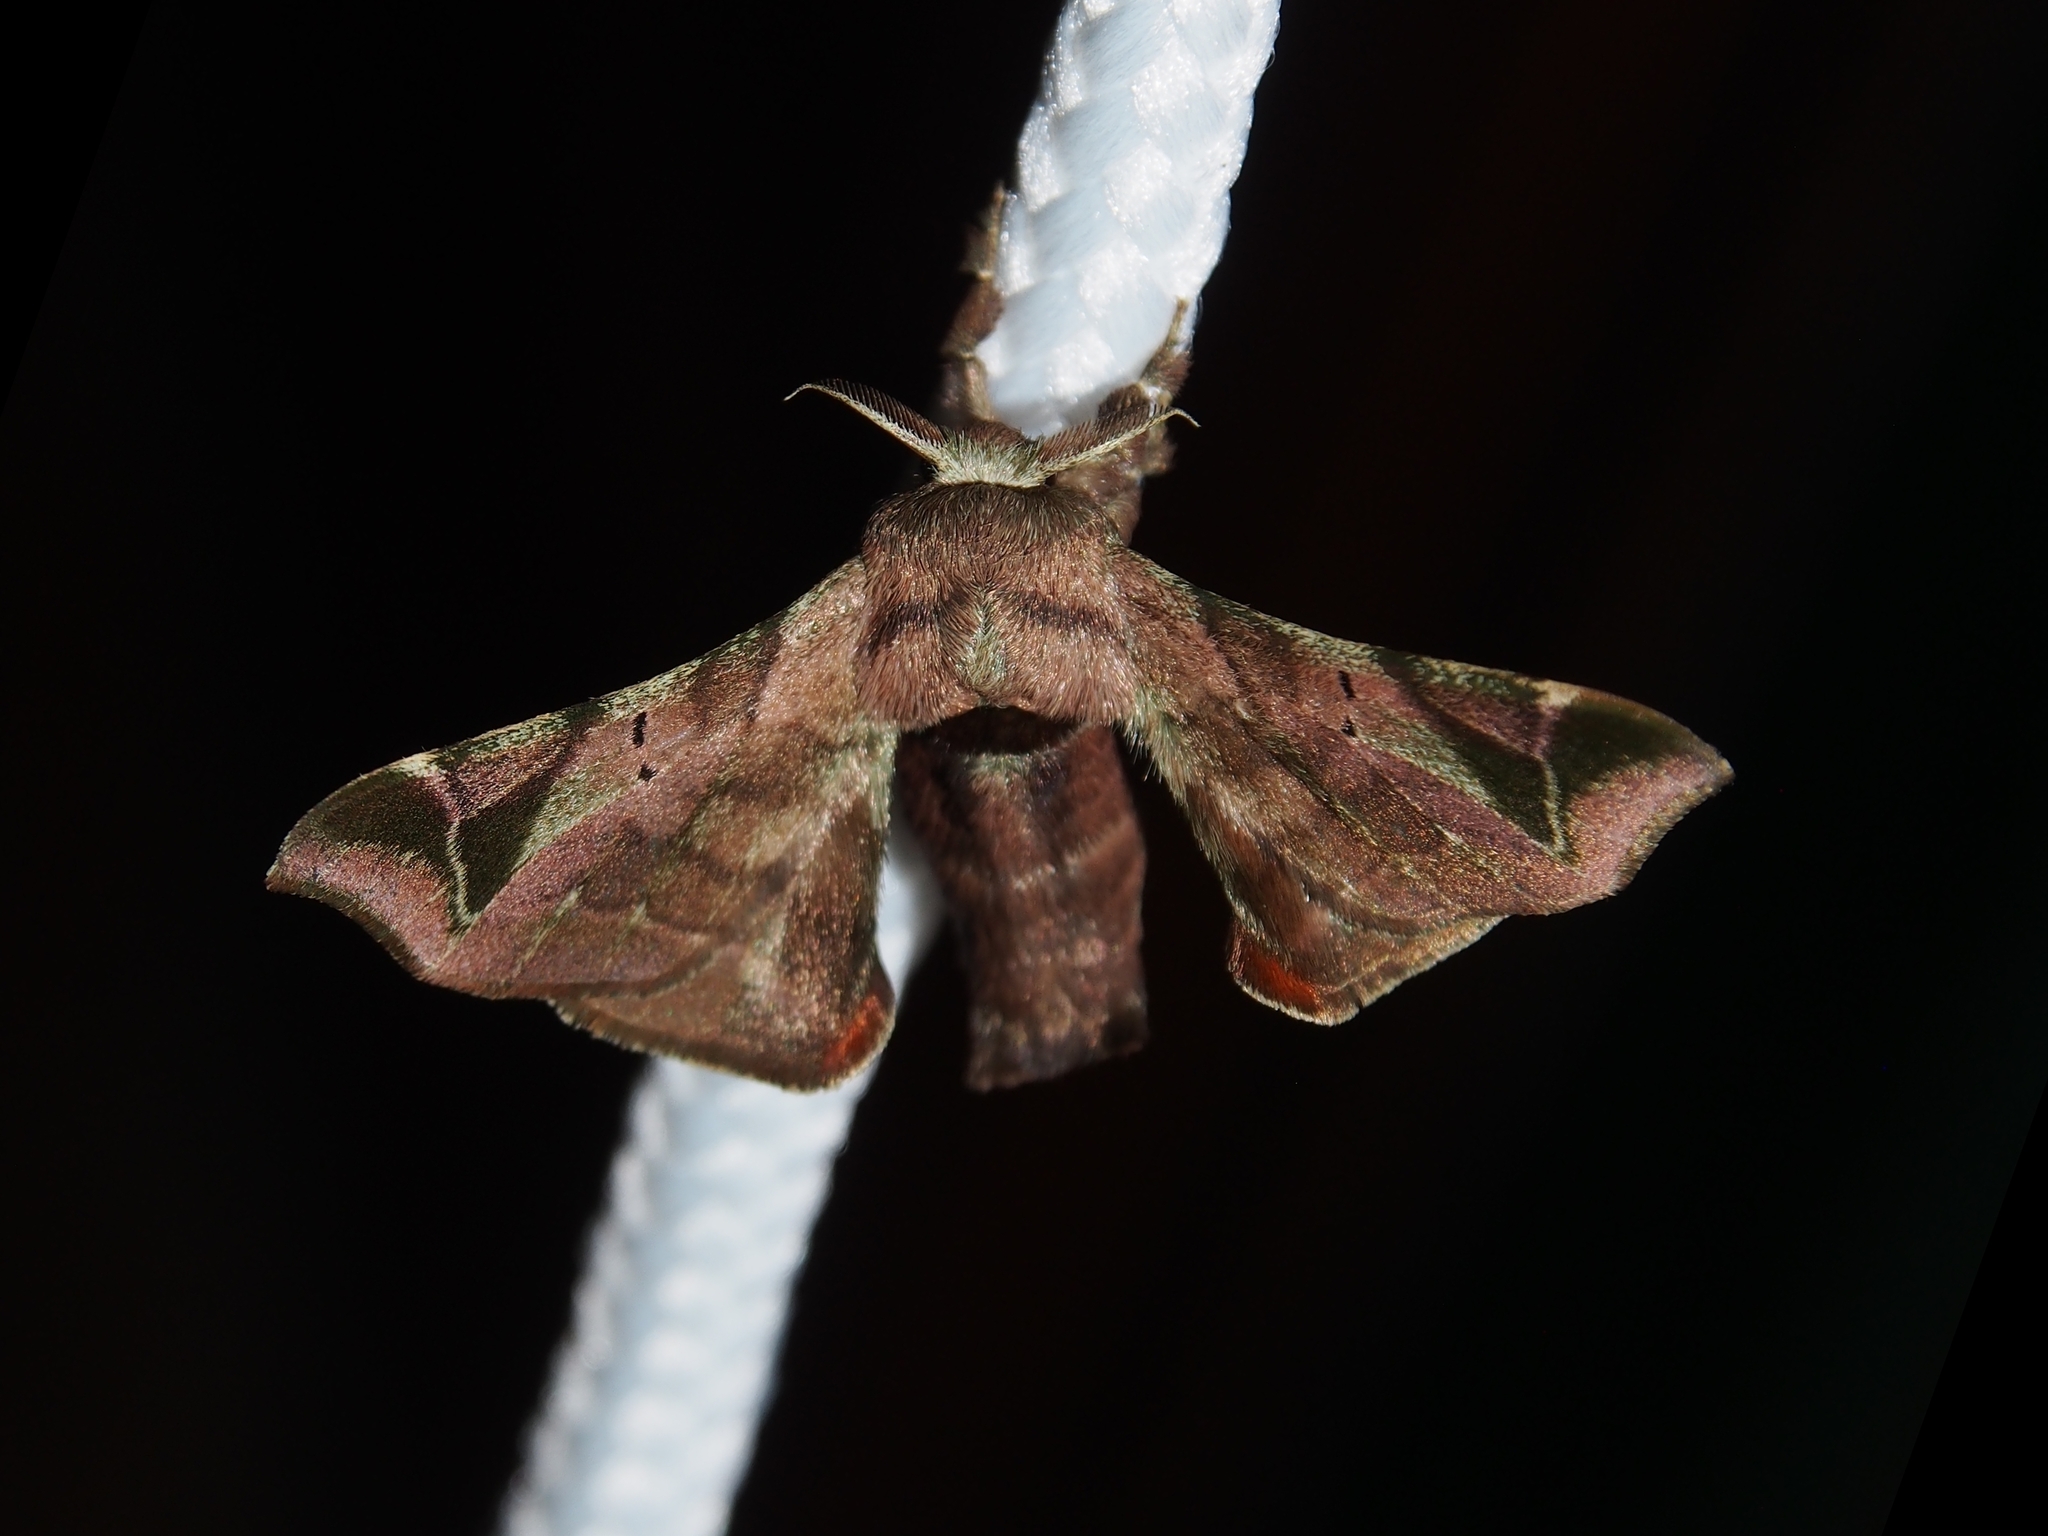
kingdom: Animalia
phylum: Arthropoda
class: Insecta
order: Lepidoptera
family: Bombycidae
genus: Quentalia
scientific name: Quentalia numalia
